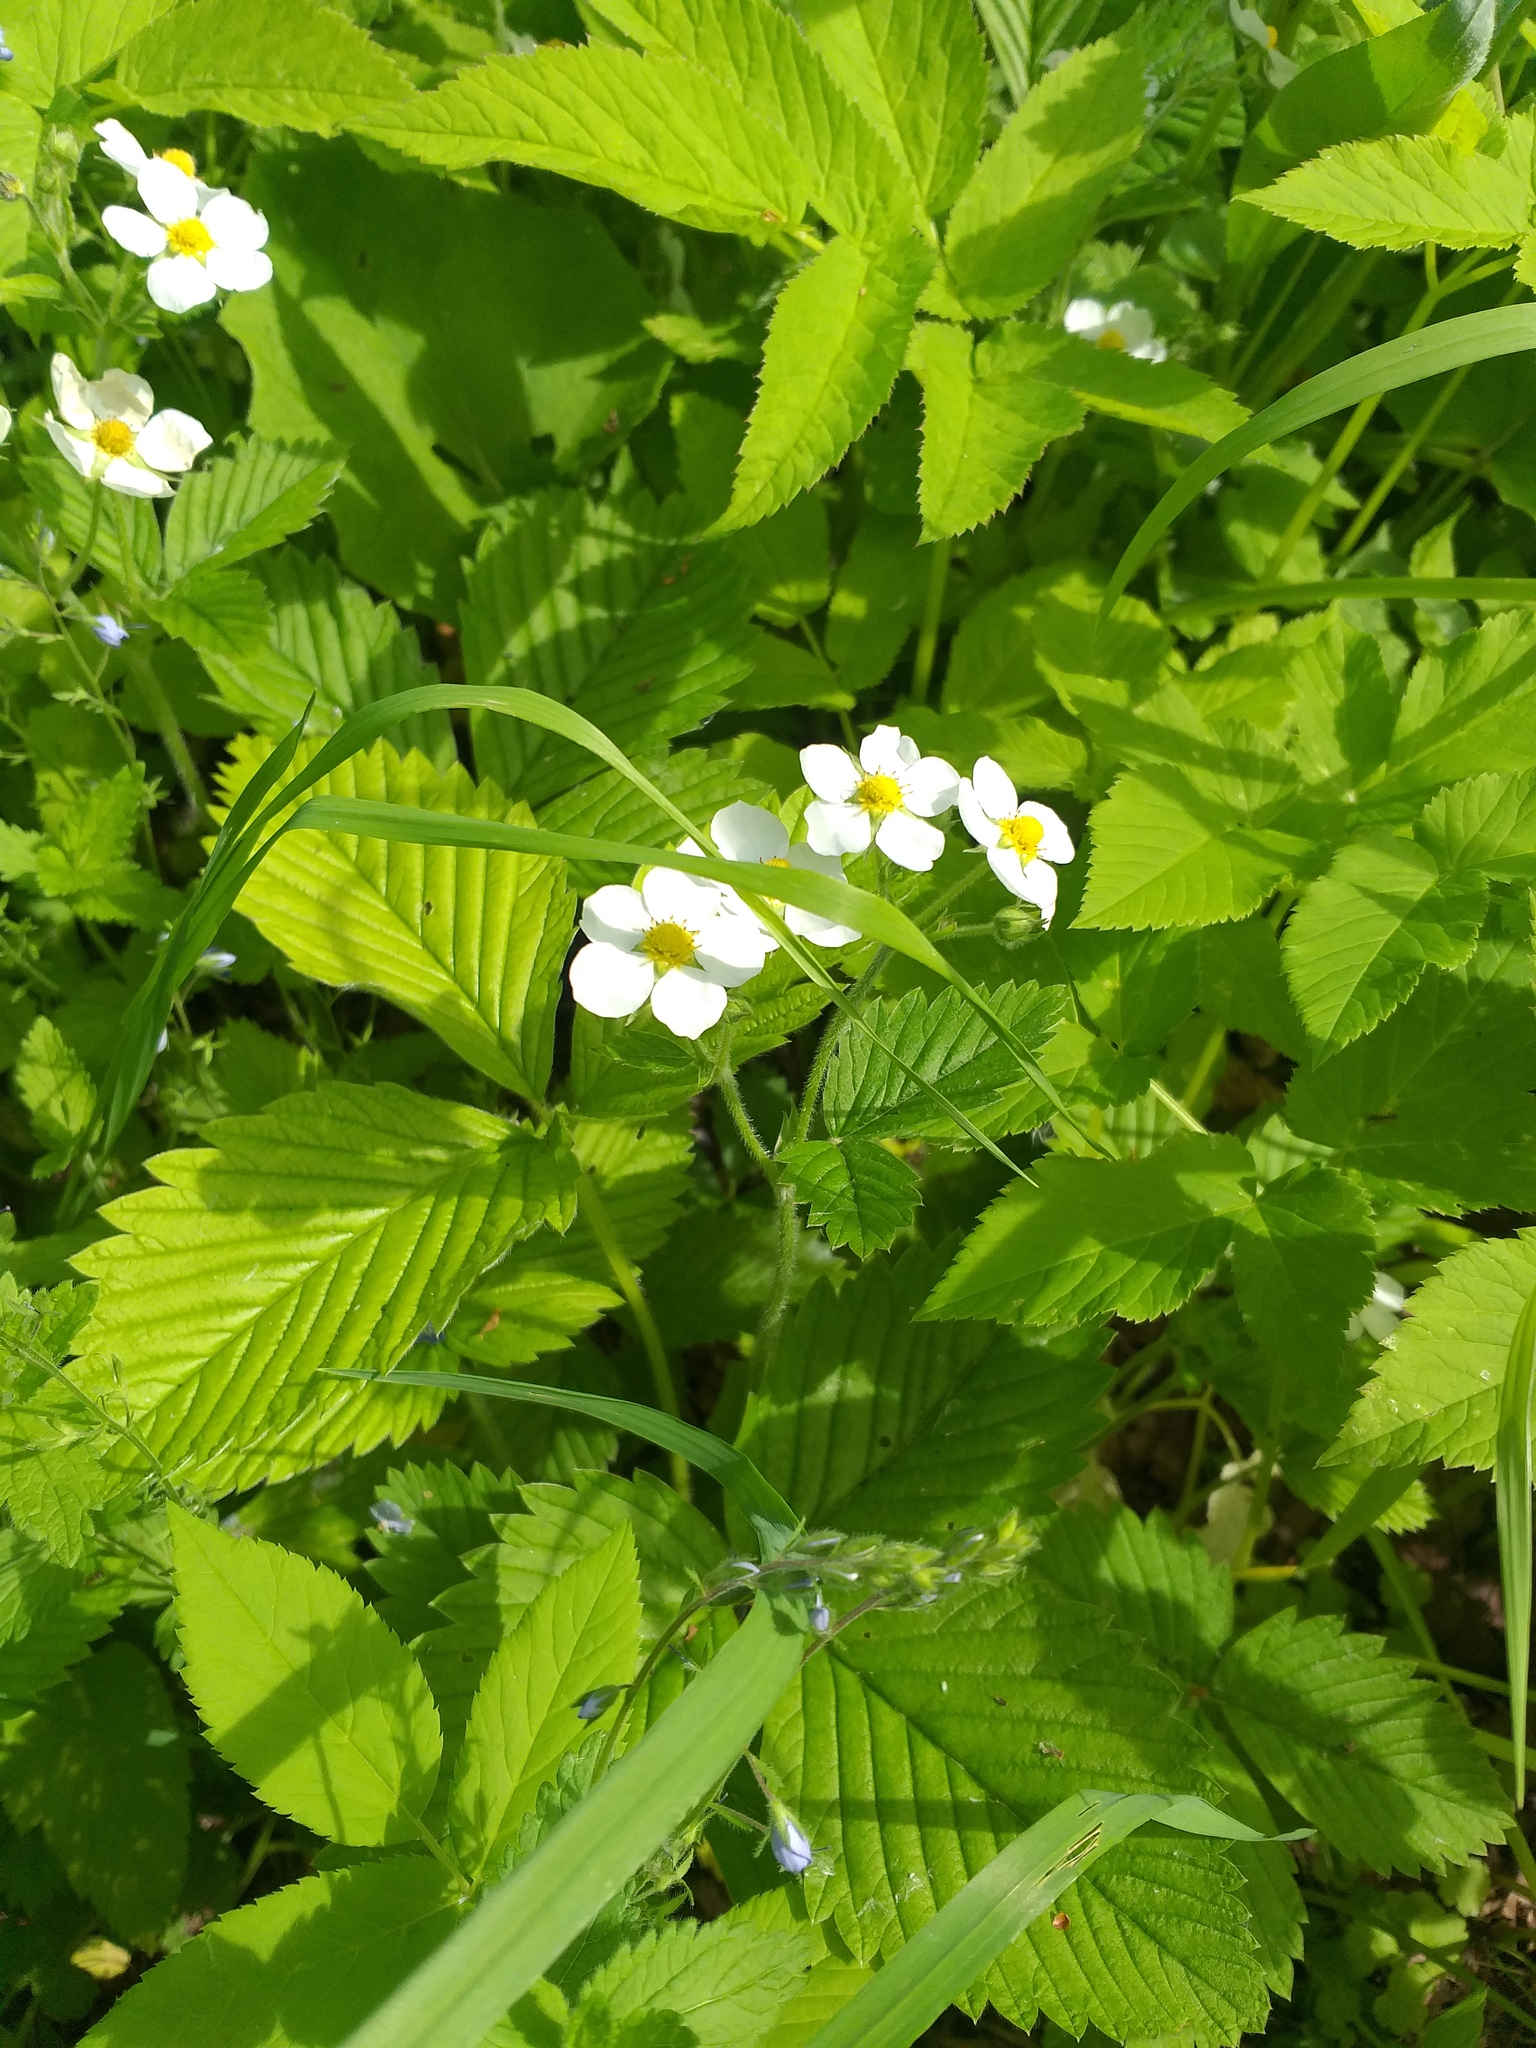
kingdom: Plantae
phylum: Tracheophyta
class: Magnoliopsida
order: Rosales
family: Rosaceae
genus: Fragaria
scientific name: Fragaria moschata
